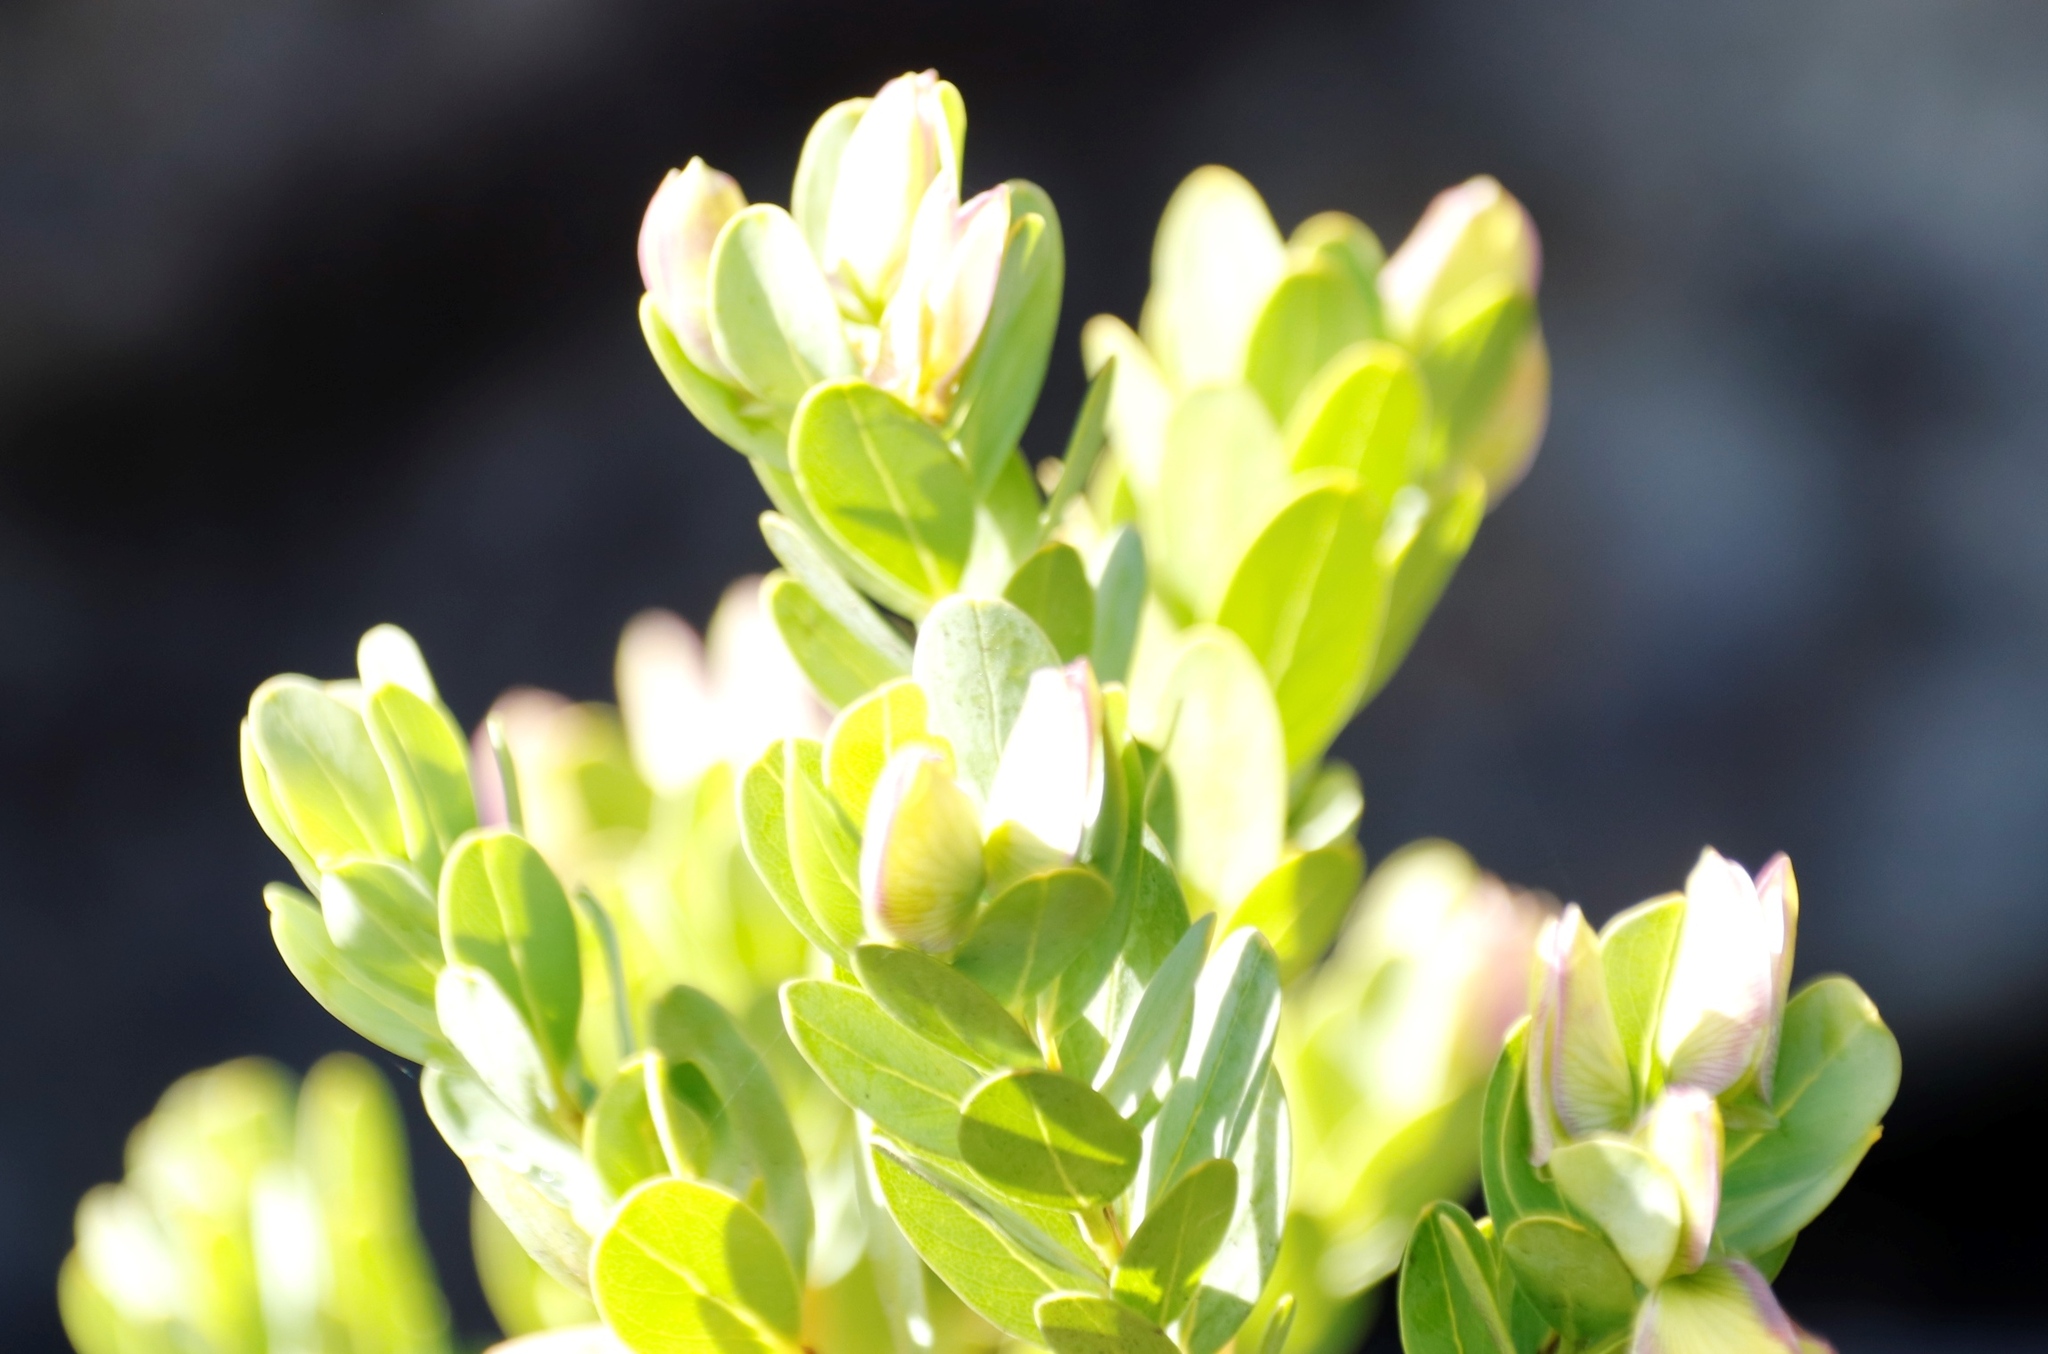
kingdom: Plantae
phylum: Tracheophyta
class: Magnoliopsida
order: Fabales
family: Polygalaceae
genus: Polygala
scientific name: Polygala myrtifolia
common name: Myrtle-leaf milkwort
